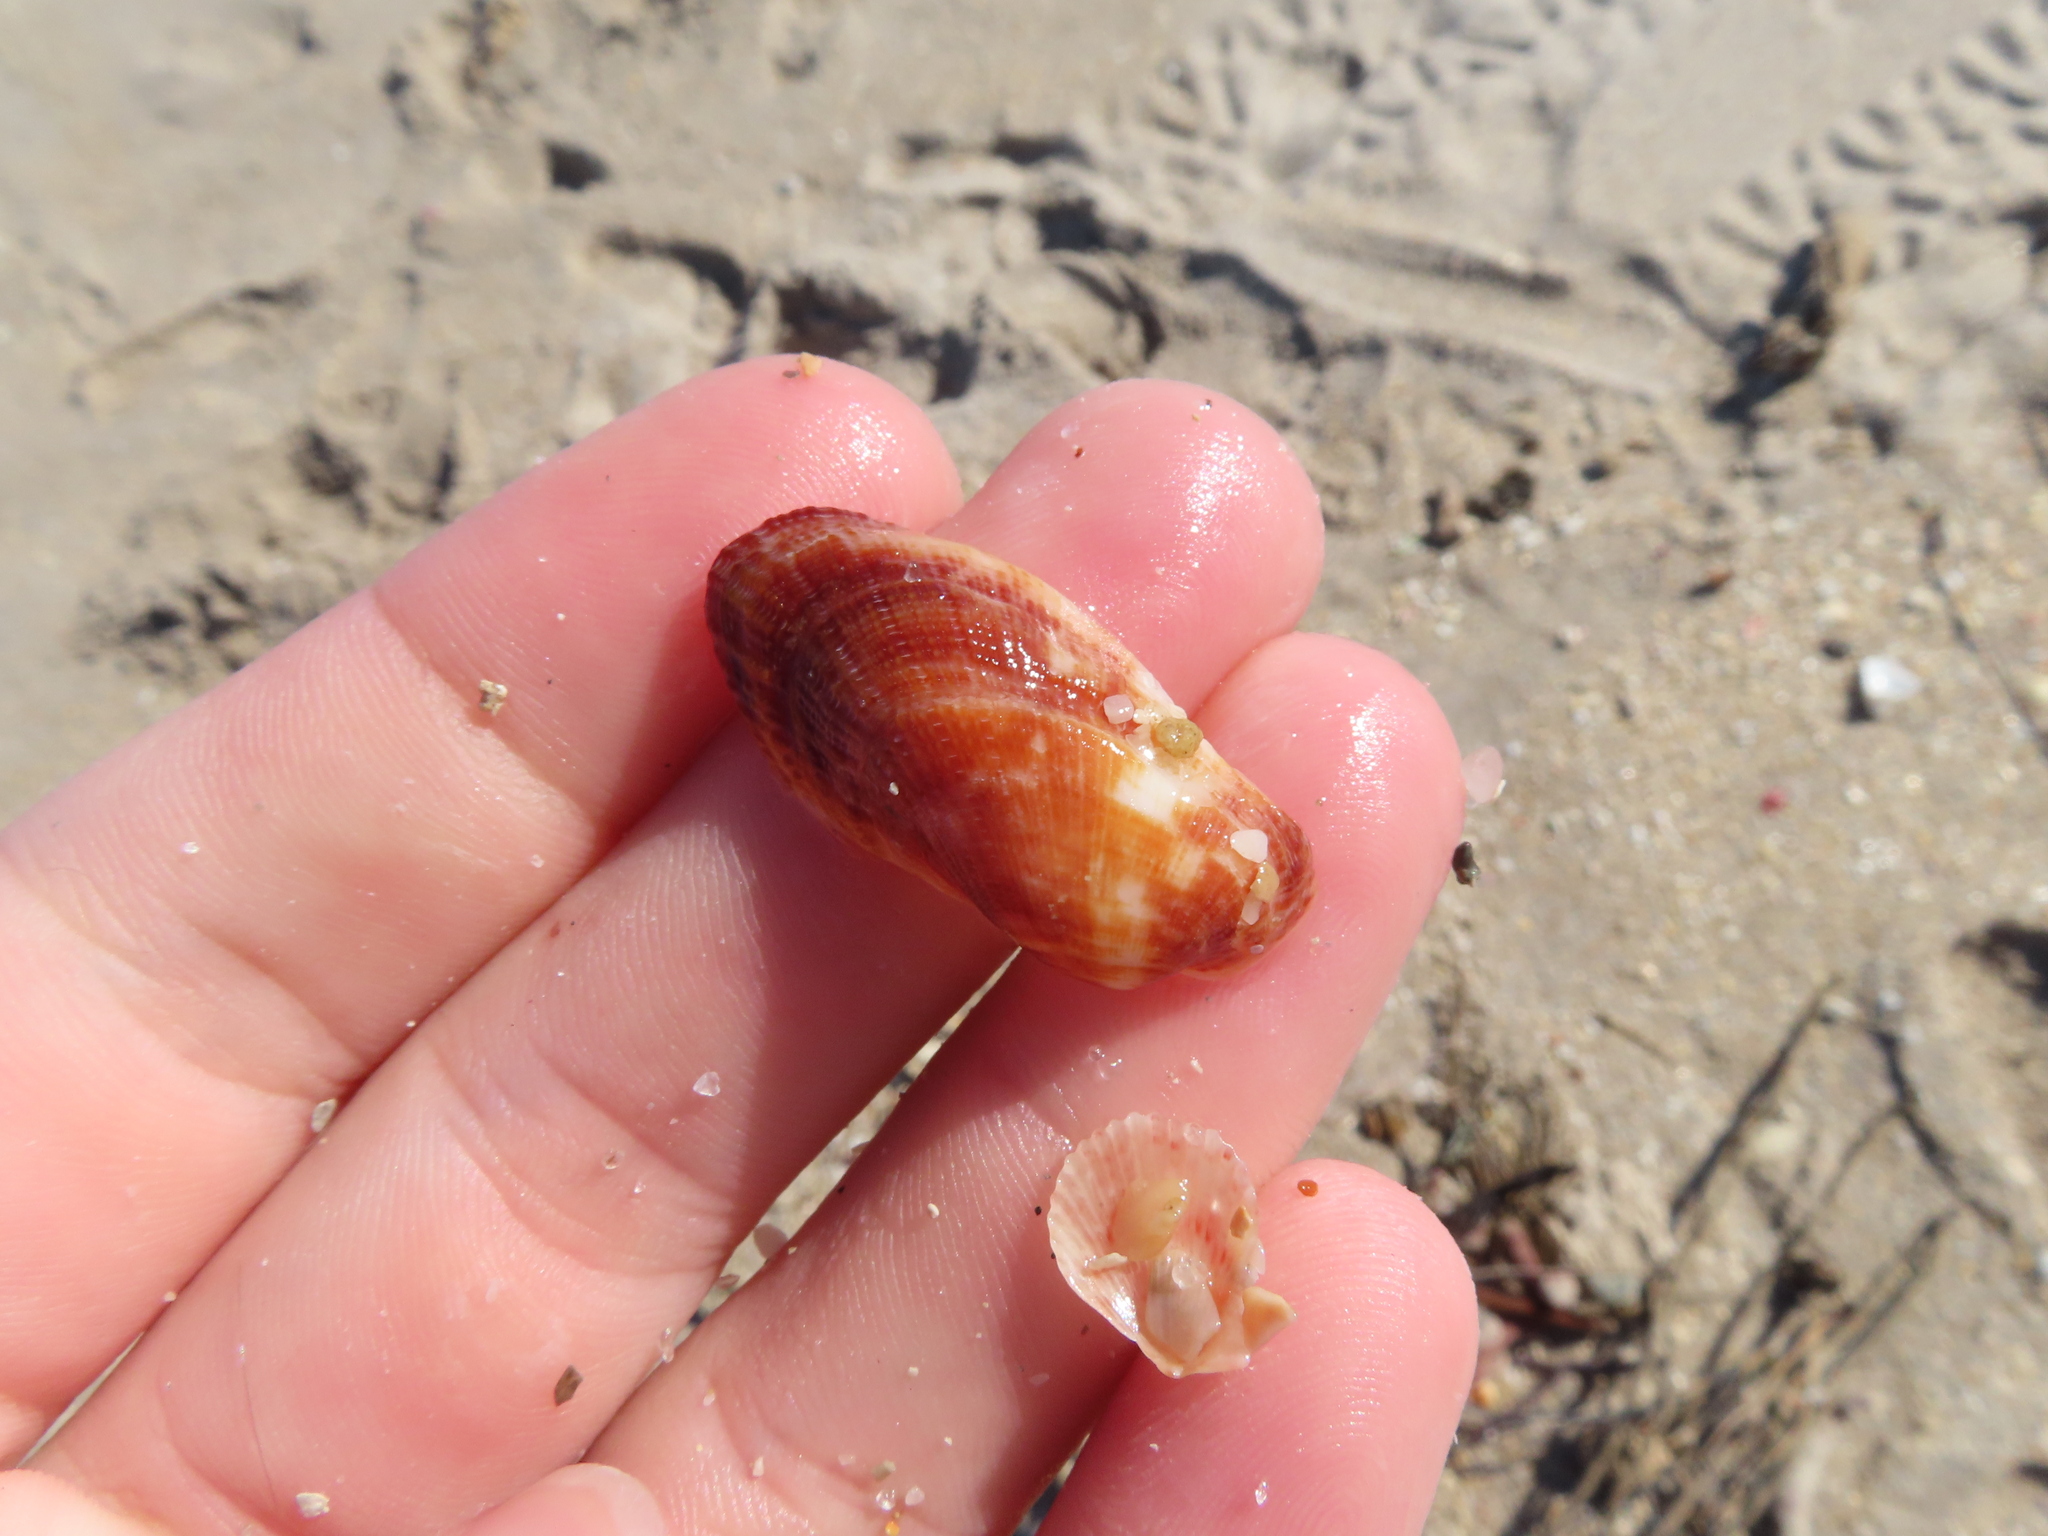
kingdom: Animalia
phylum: Mollusca
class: Bivalvia
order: Arcida
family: Arcidae
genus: Barbatia
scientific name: Barbatia domingensis
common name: White miniature ark
